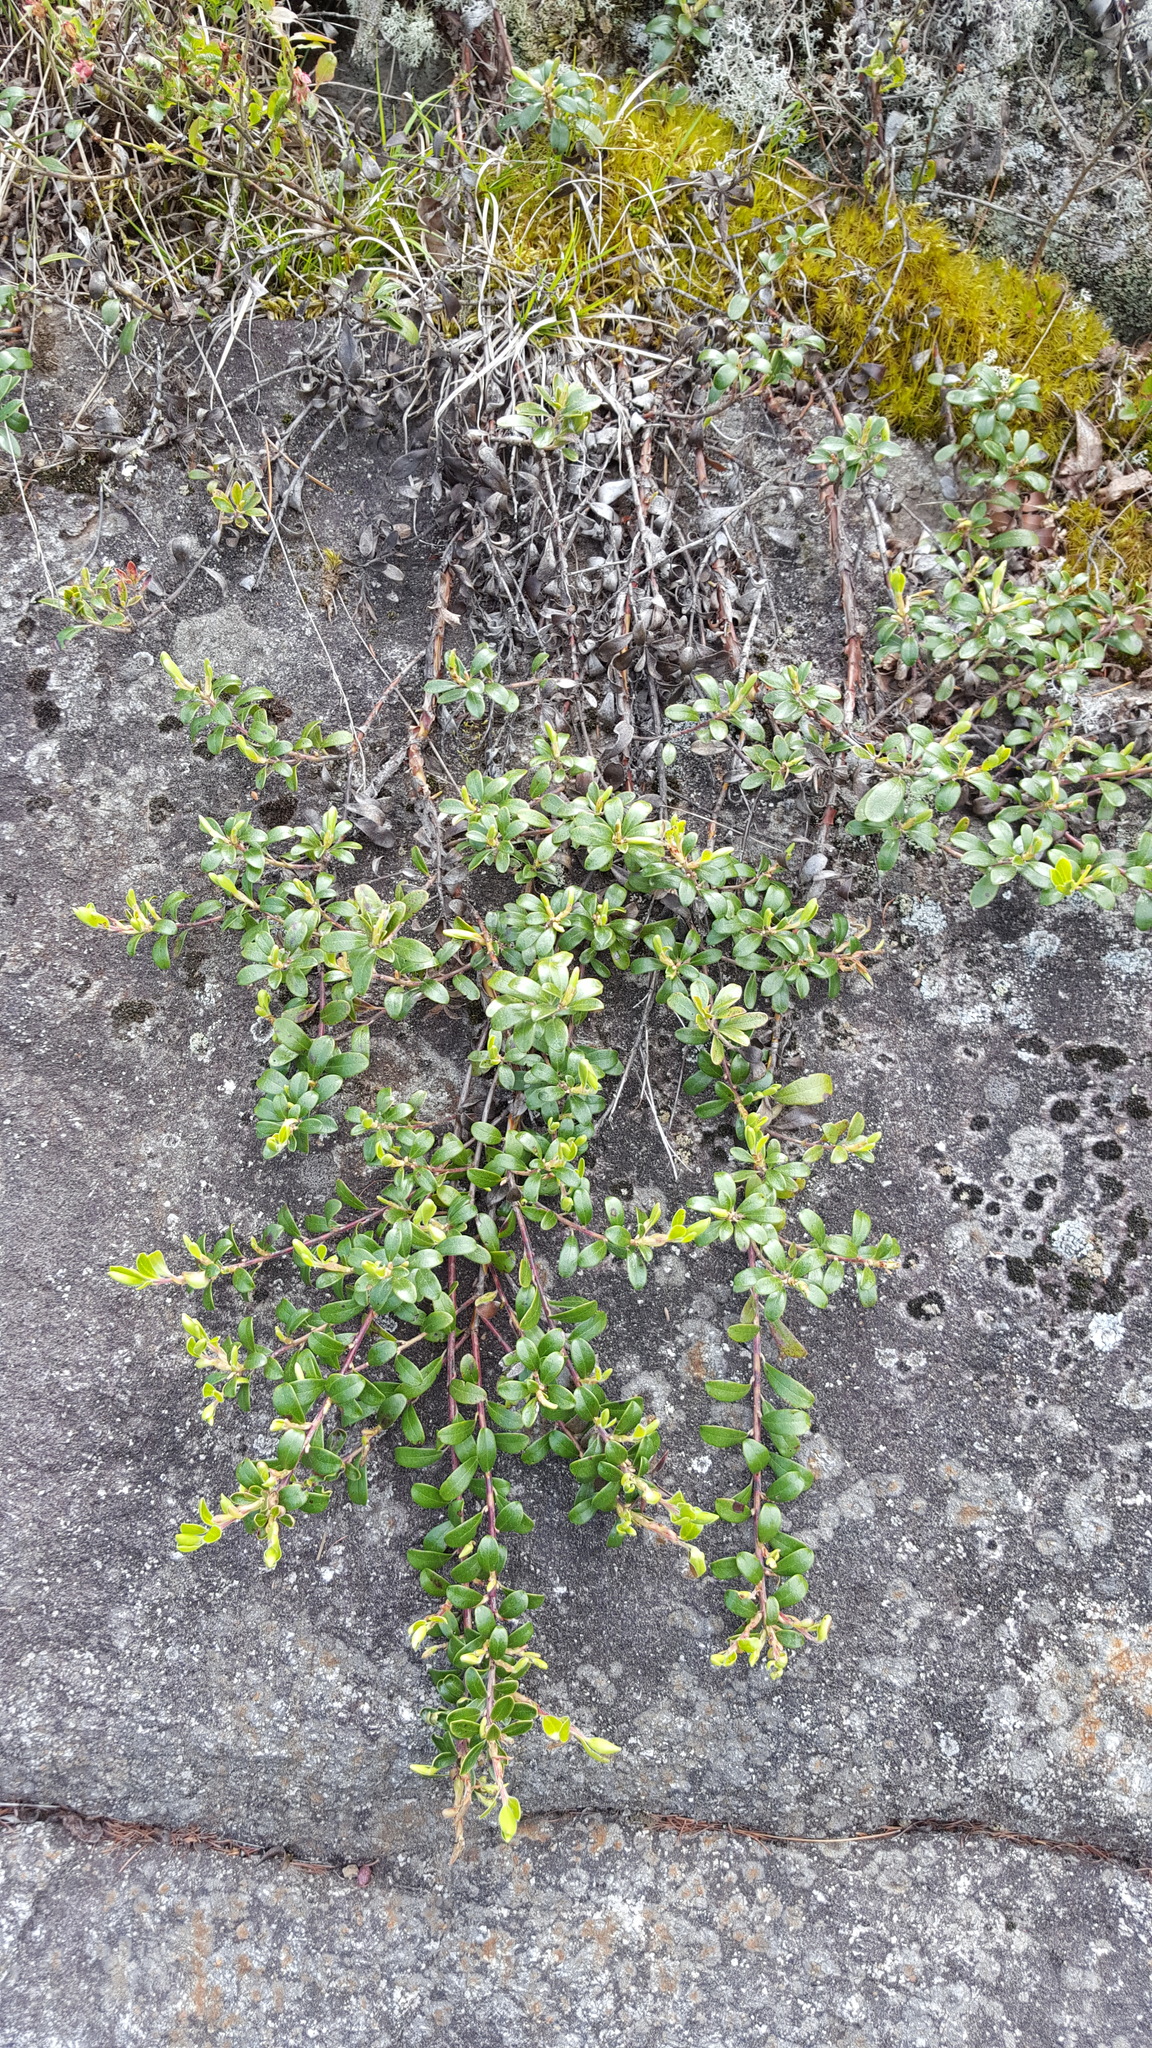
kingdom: Plantae
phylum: Tracheophyta
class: Magnoliopsida
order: Ericales
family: Ericaceae
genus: Arctostaphylos
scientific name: Arctostaphylos uva-ursi
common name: Bearberry
